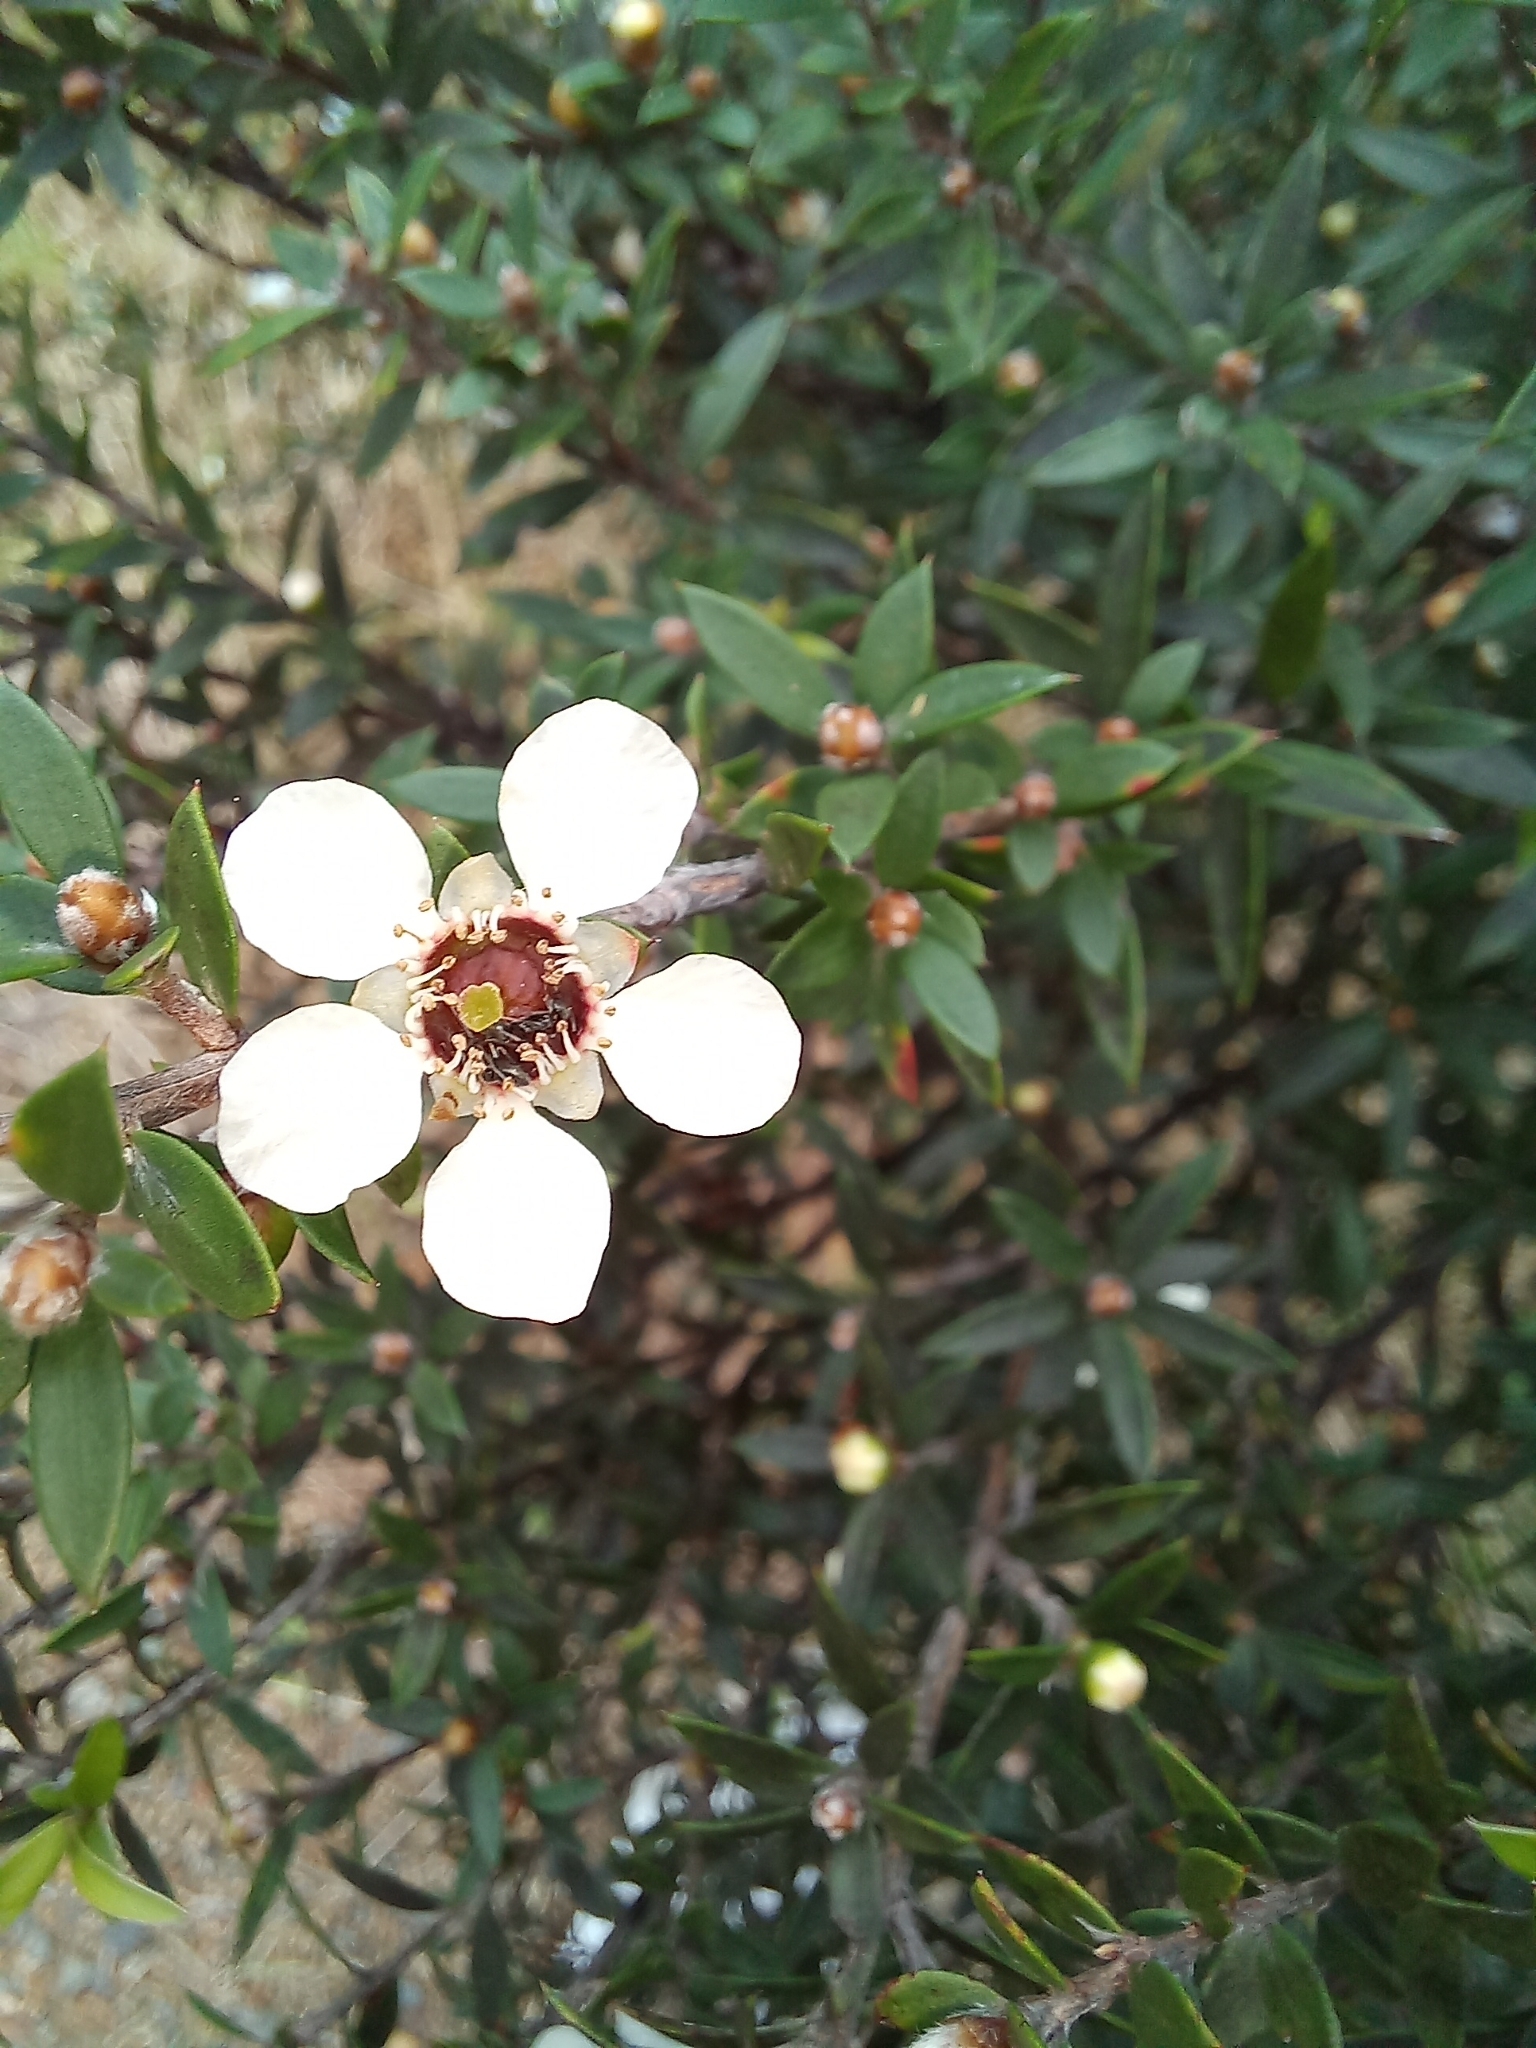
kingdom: Plantae
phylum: Tracheophyta
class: Magnoliopsida
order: Myrtales
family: Myrtaceae
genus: Leptospermum
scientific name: Leptospermum scoparium
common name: Broom tea-tree
